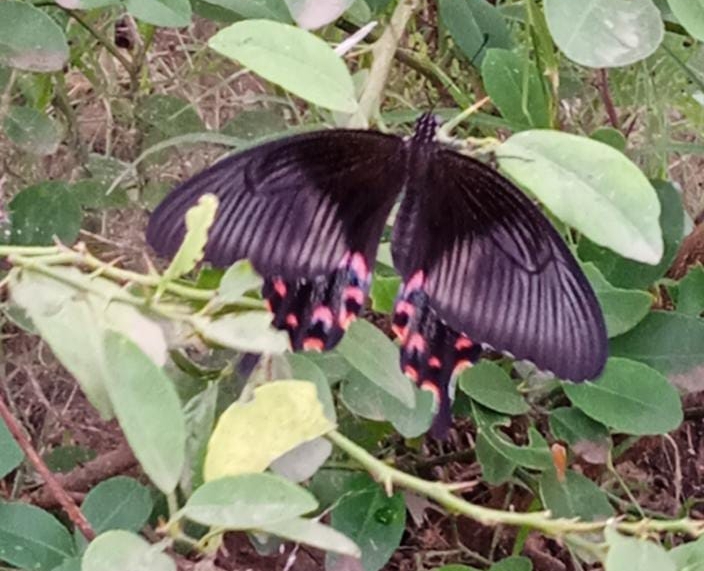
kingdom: Animalia
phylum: Arthropoda
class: Insecta
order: Lepidoptera
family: Papilionidae
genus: Papilio
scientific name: Papilio polytes
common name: Common mormon
